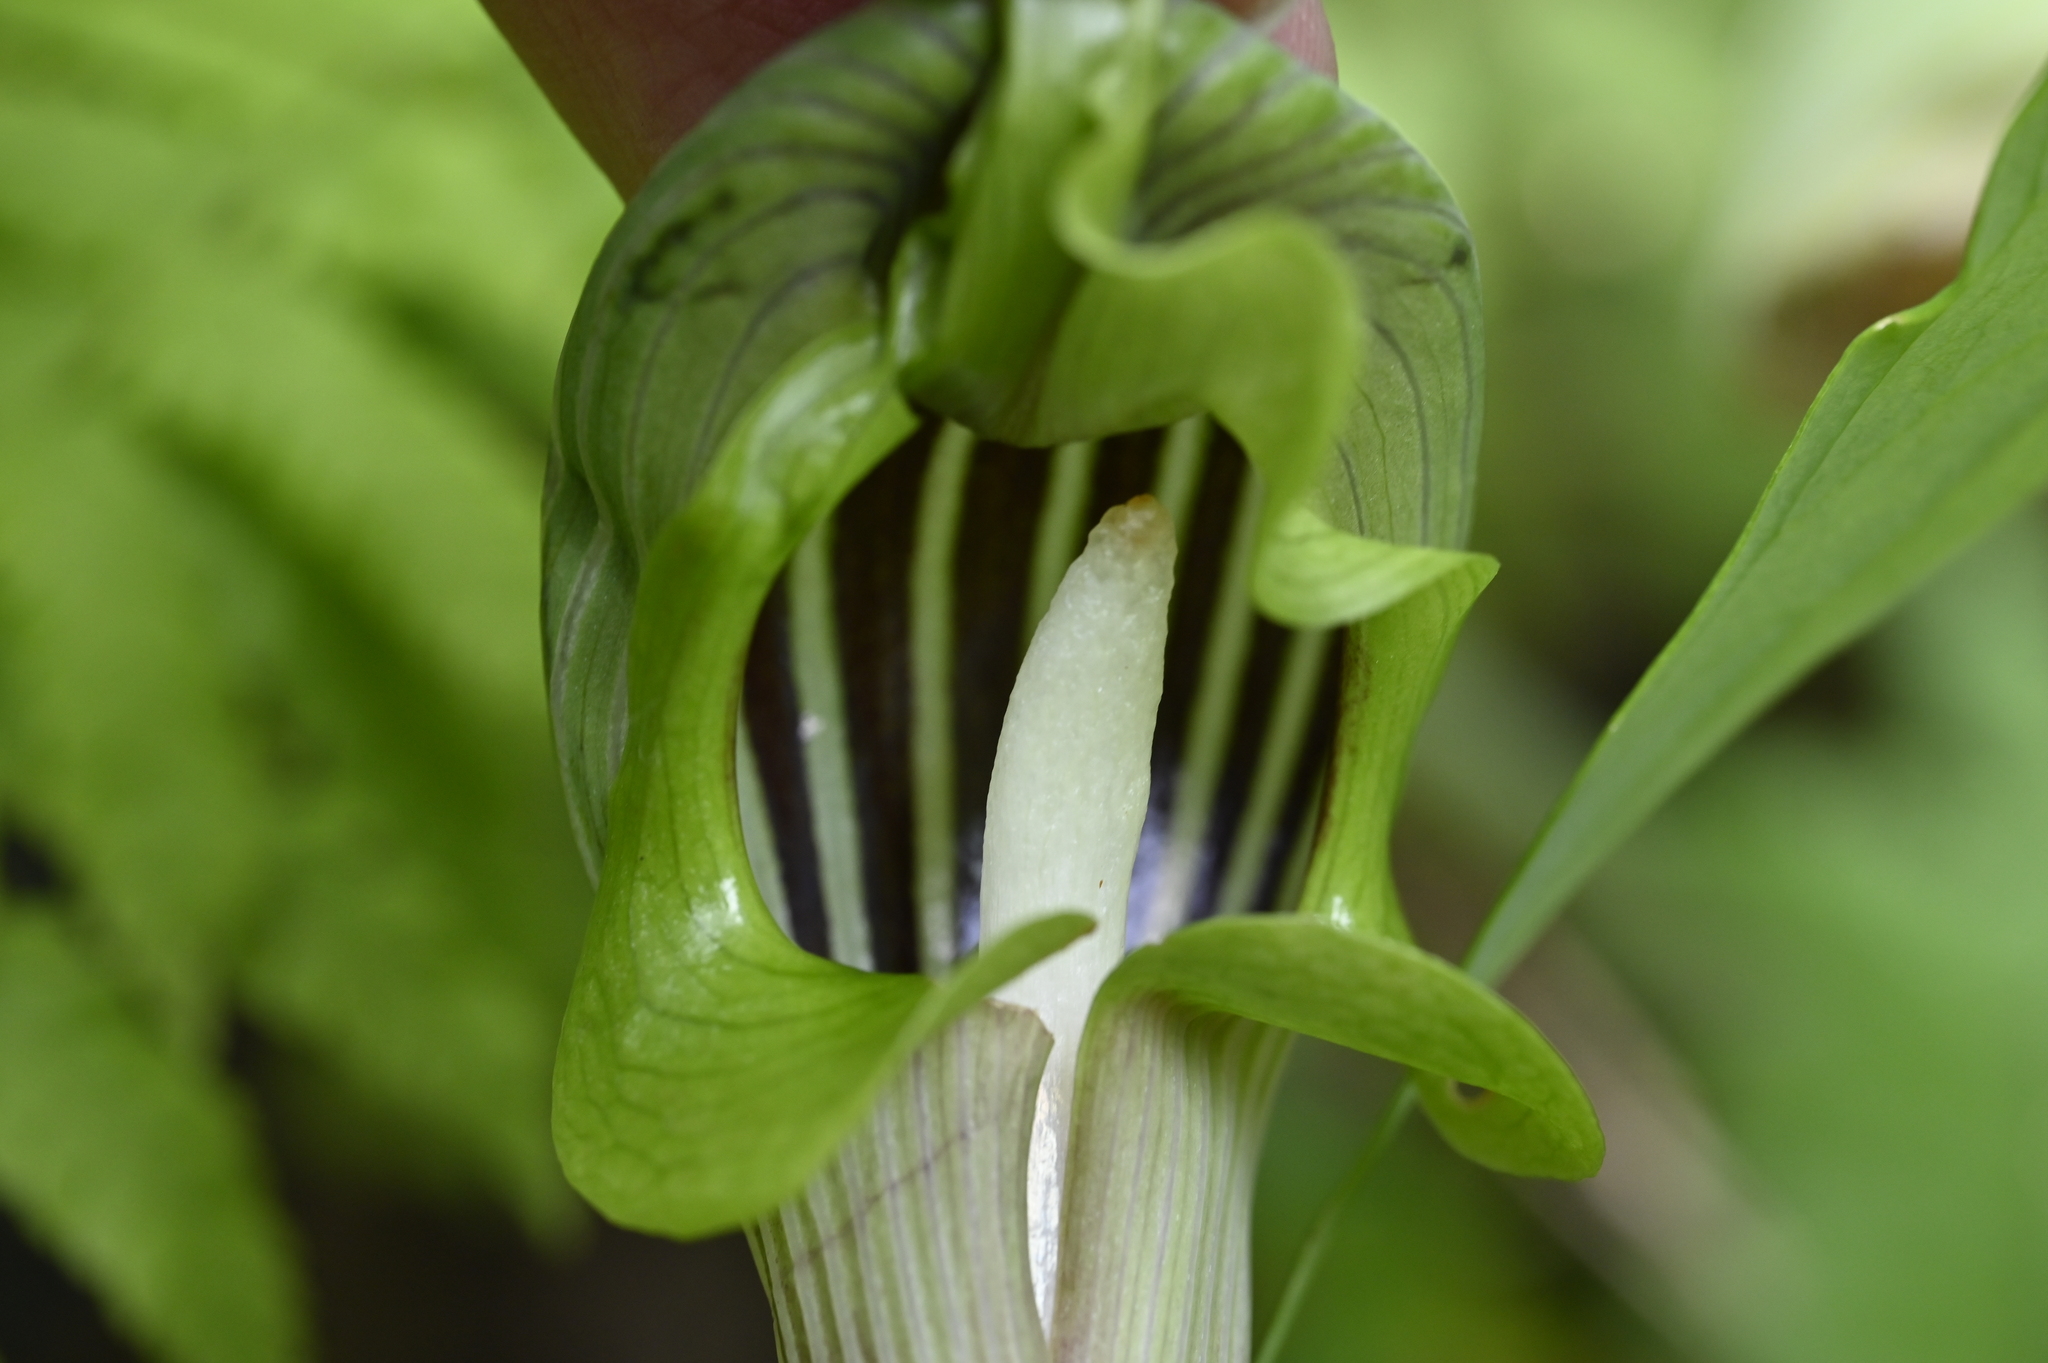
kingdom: Plantae
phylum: Tracheophyta
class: Liliopsida
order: Alismatales
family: Araceae
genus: Arisaema
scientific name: Arisaema ringens
